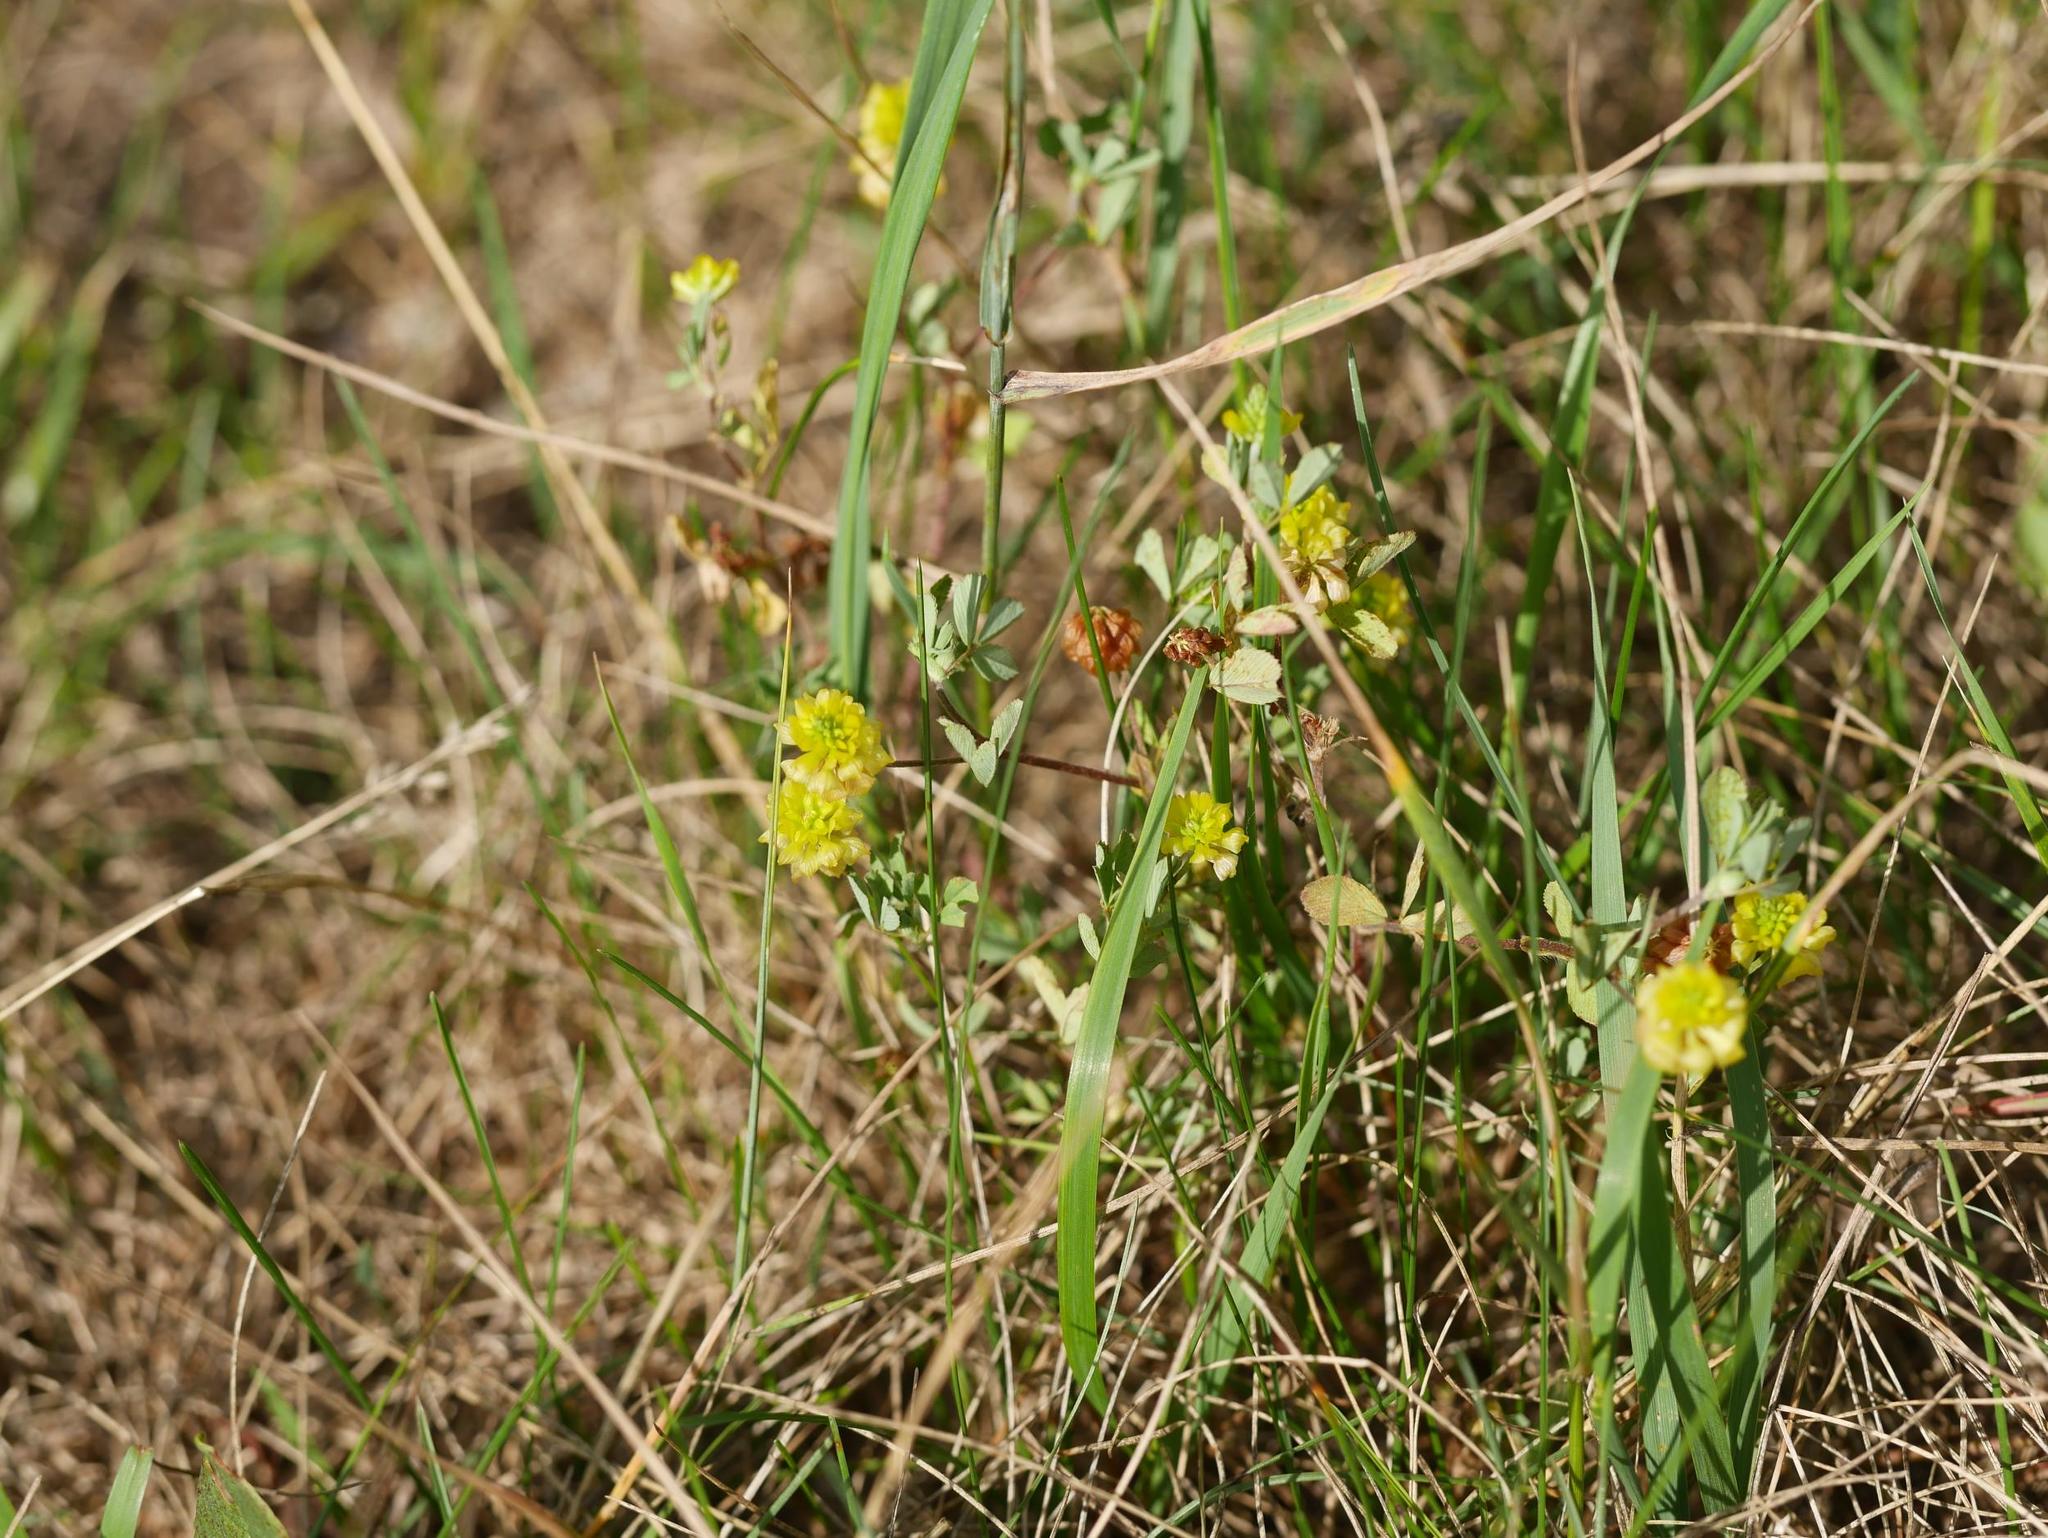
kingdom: Plantae
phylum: Tracheophyta
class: Magnoliopsida
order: Fabales
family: Fabaceae
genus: Trifolium
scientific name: Trifolium campestre
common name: Field clover
